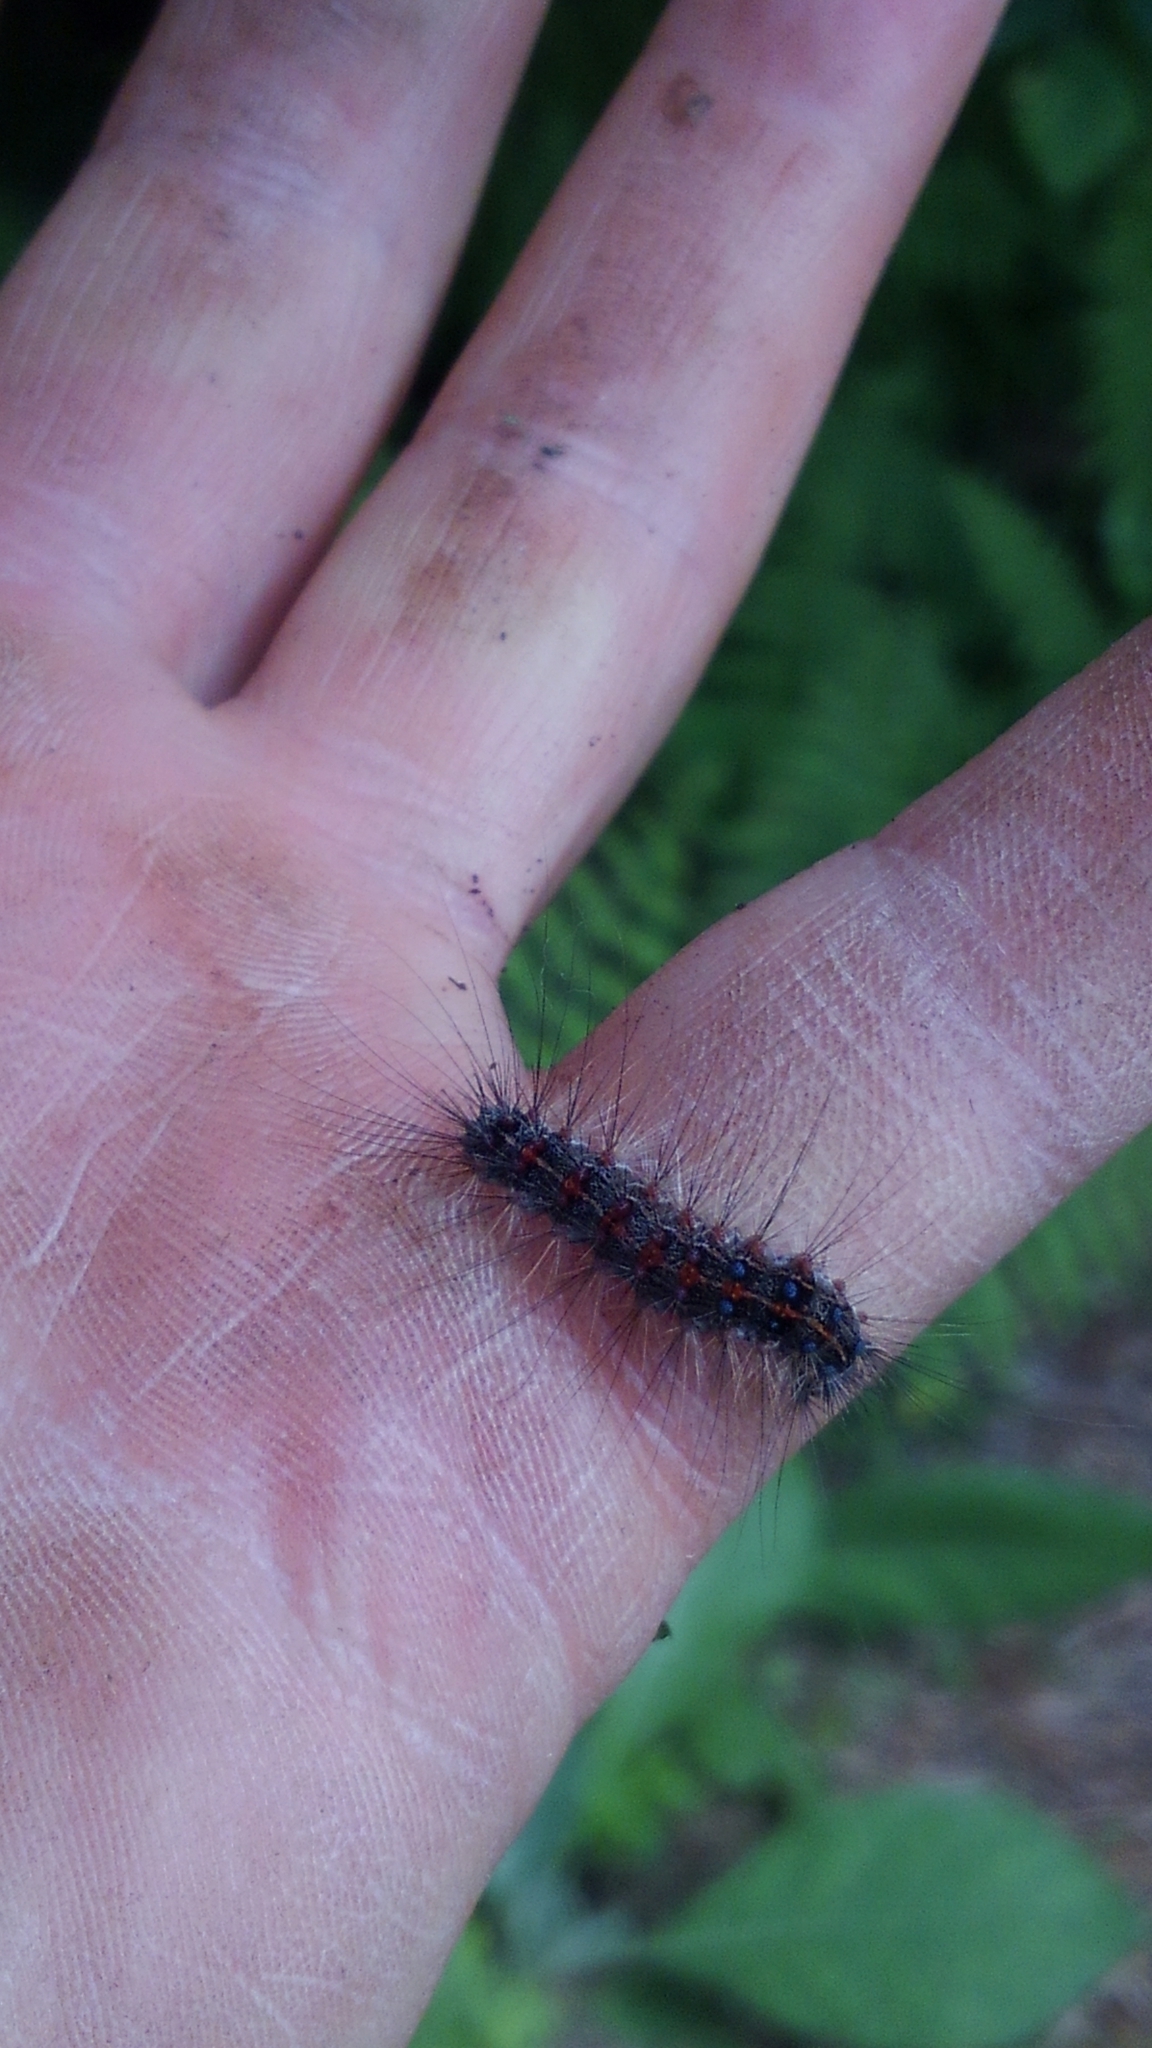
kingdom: Animalia
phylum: Arthropoda
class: Insecta
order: Lepidoptera
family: Erebidae
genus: Lymantria
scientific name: Lymantria dispar
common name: Gypsy moth
